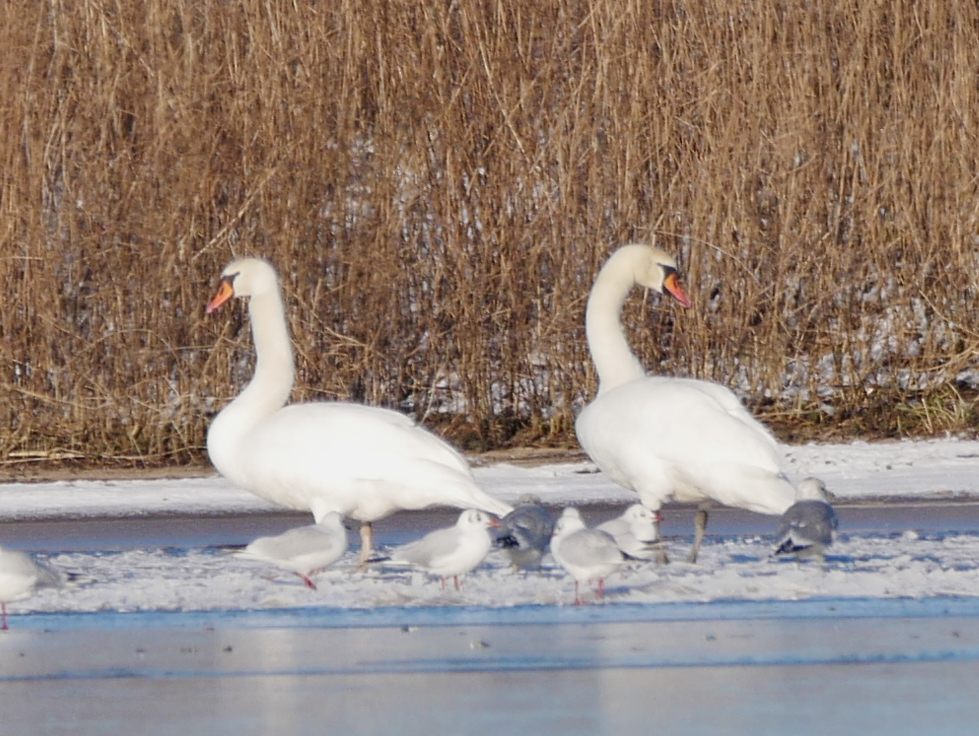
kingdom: Animalia
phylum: Chordata
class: Aves
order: Anseriformes
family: Anatidae
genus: Cygnus
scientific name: Cygnus olor
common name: Mute swan
